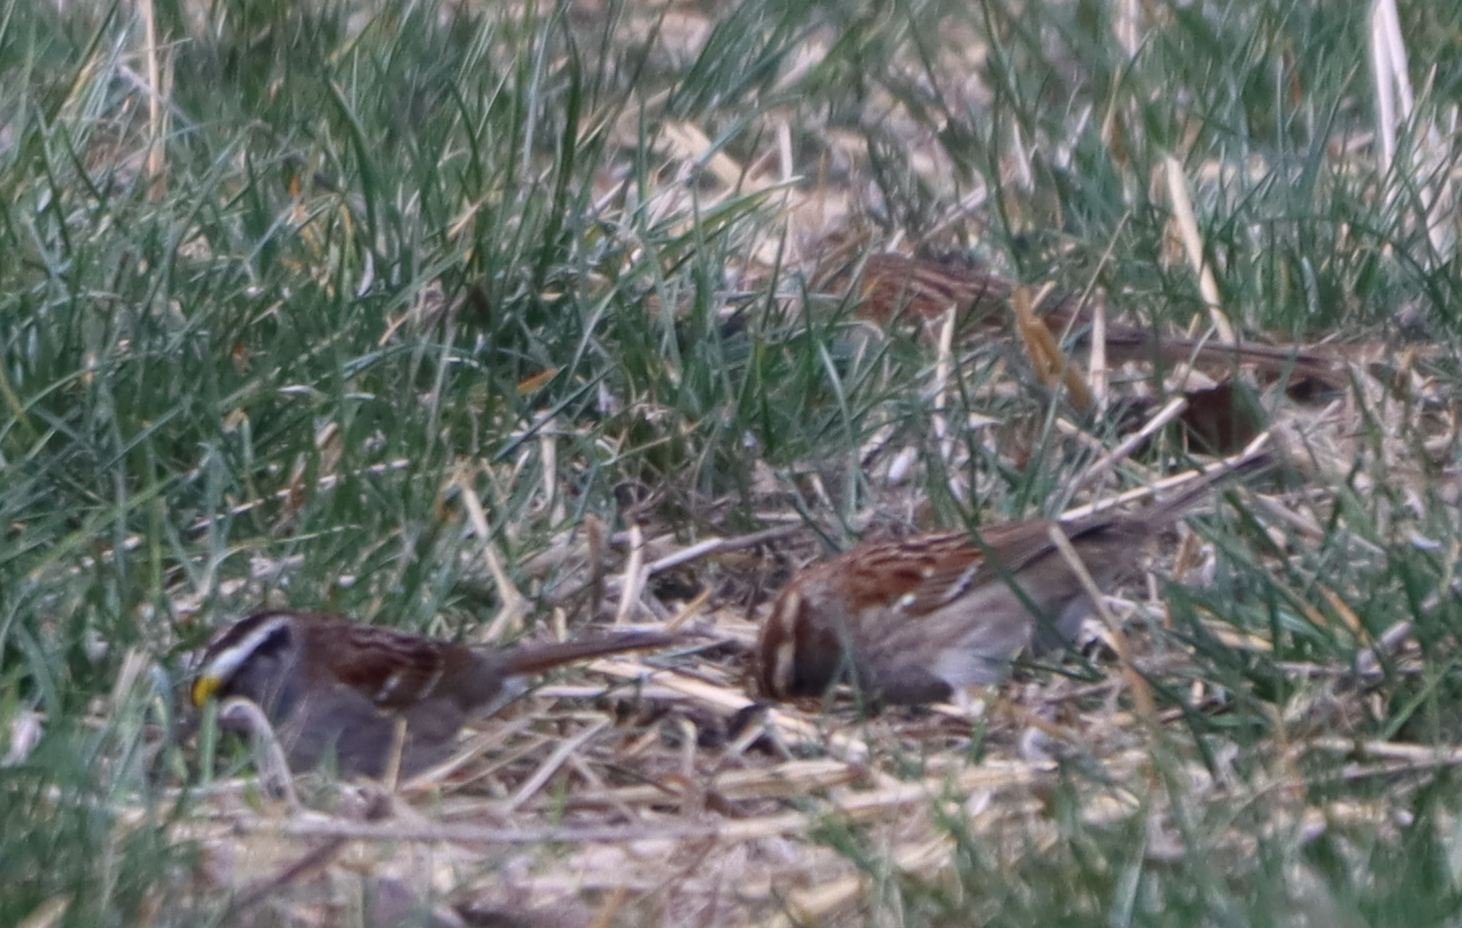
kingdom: Animalia
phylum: Chordata
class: Aves
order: Passeriformes
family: Passerellidae
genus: Zonotrichia
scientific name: Zonotrichia albicollis
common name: White-throated sparrow
